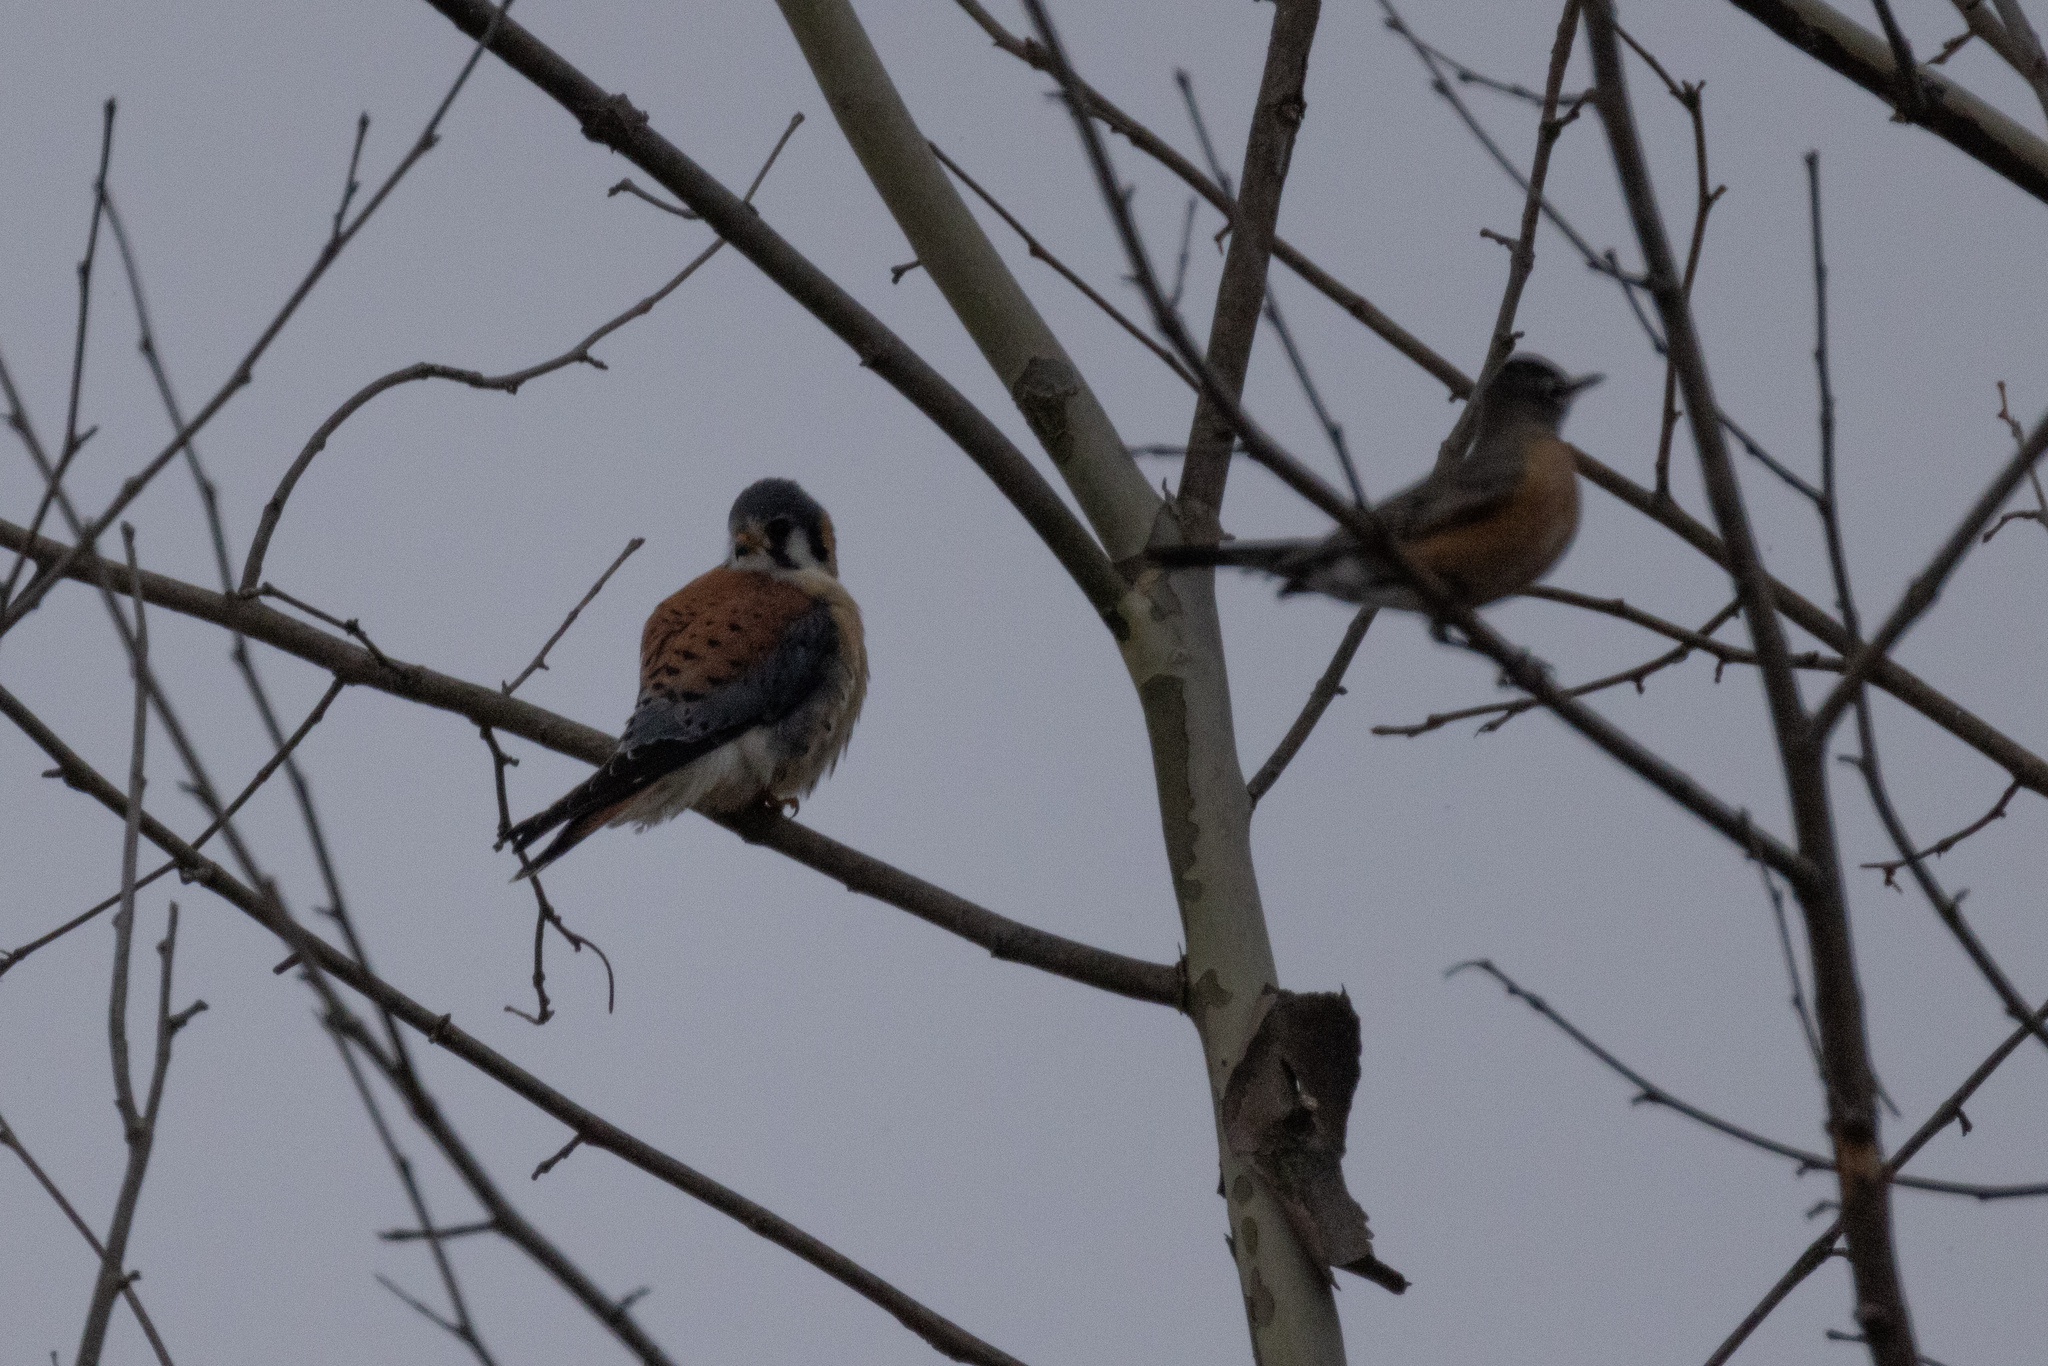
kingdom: Animalia
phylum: Chordata
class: Aves
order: Passeriformes
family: Turdidae
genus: Turdus
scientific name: Turdus migratorius
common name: American robin
